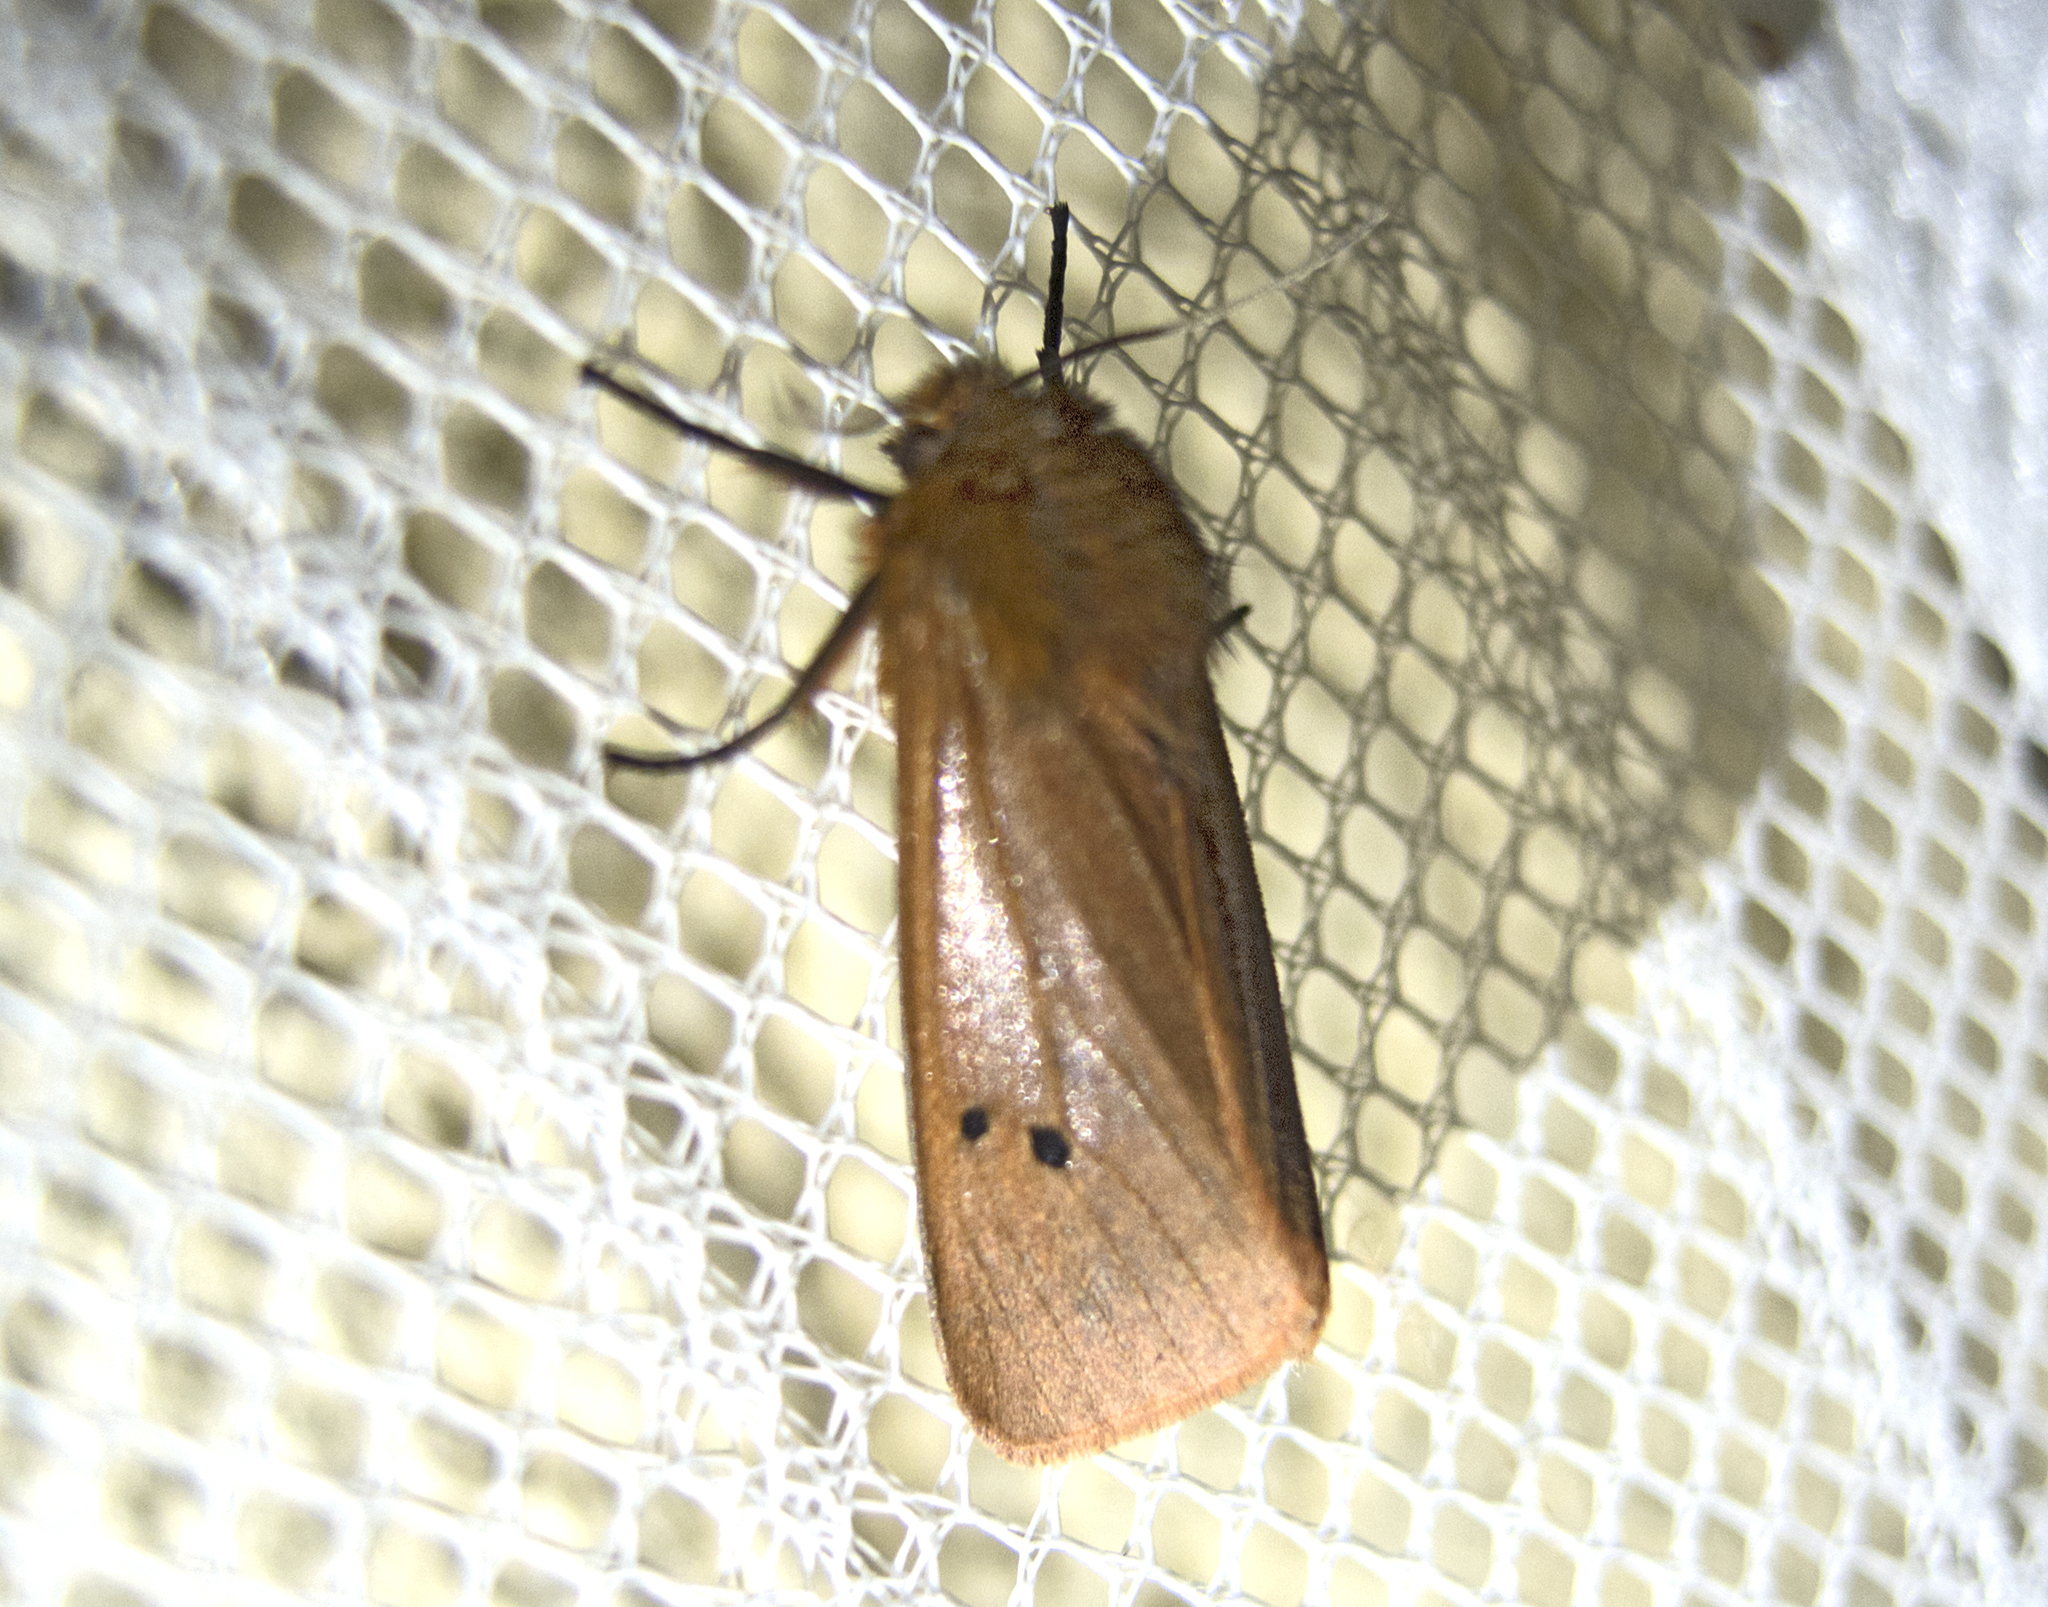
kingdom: Animalia
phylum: Arthropoda
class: Insecta
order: Lepidoptera
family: Erebidae
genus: Phragmatobia
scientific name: Phragmatobia fuliginosa
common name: Ruby tiger
